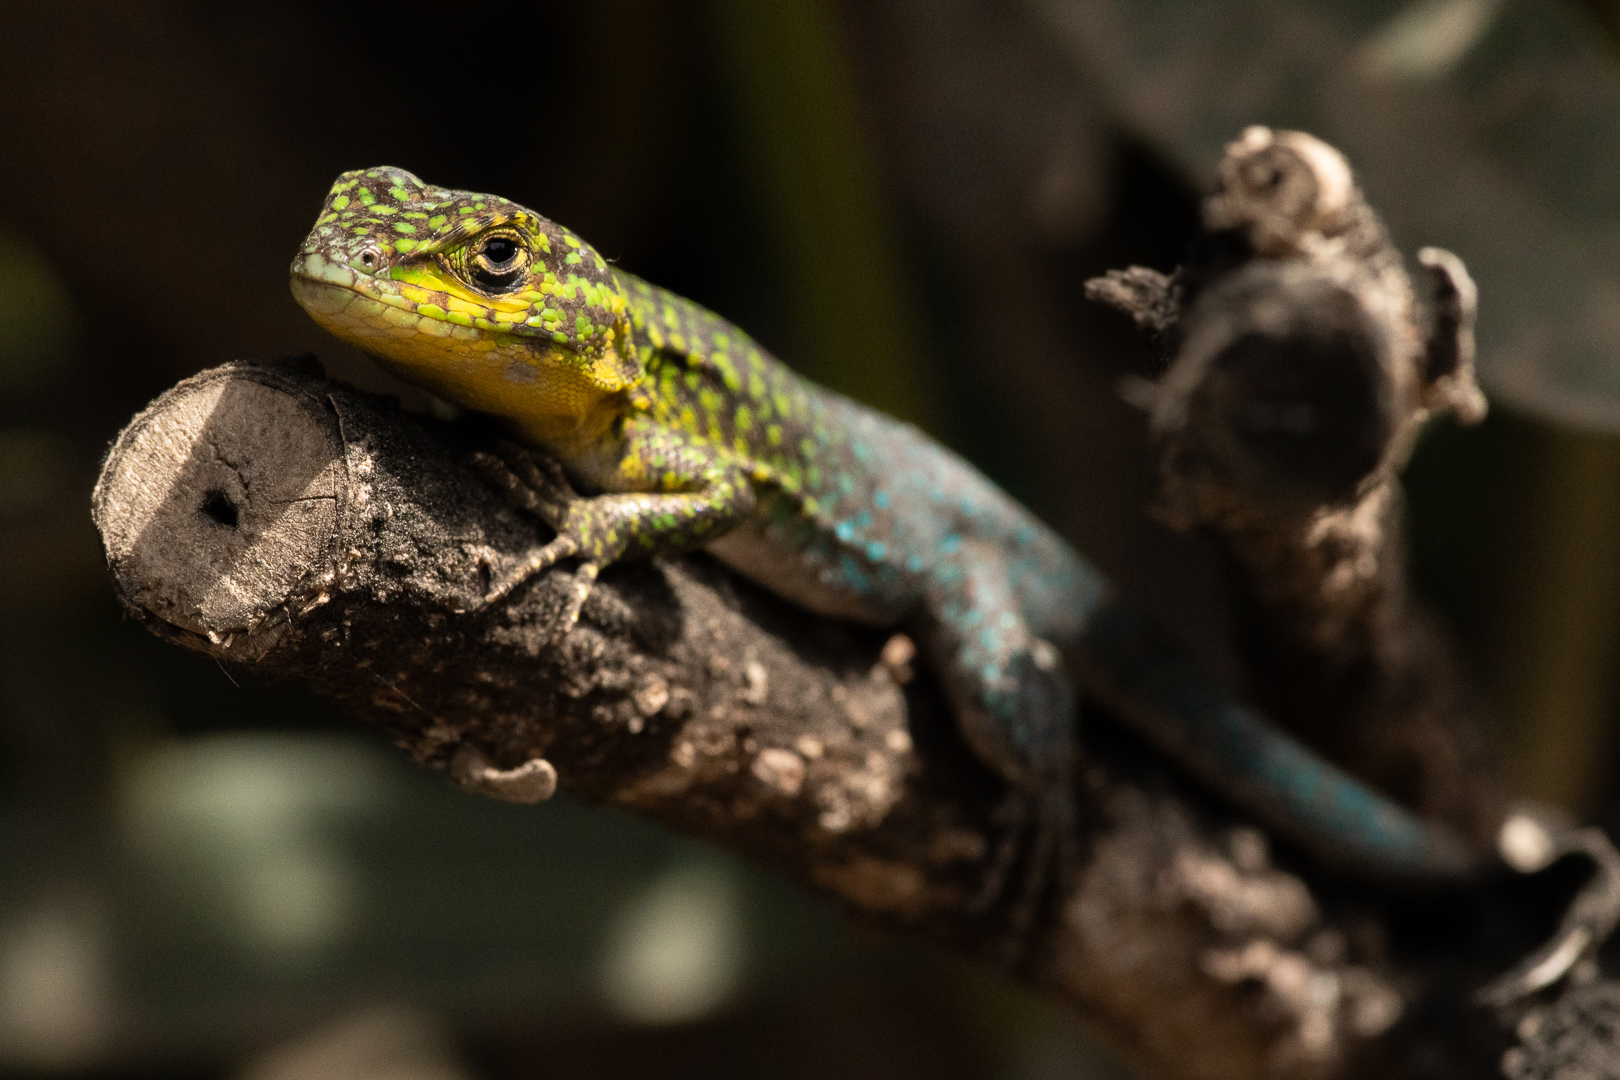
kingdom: Animalia
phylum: Chordata
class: Squamata
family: Liolaemidae
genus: Liolaemus
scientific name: Liolaemus tenuis
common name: Thin tree iguana
